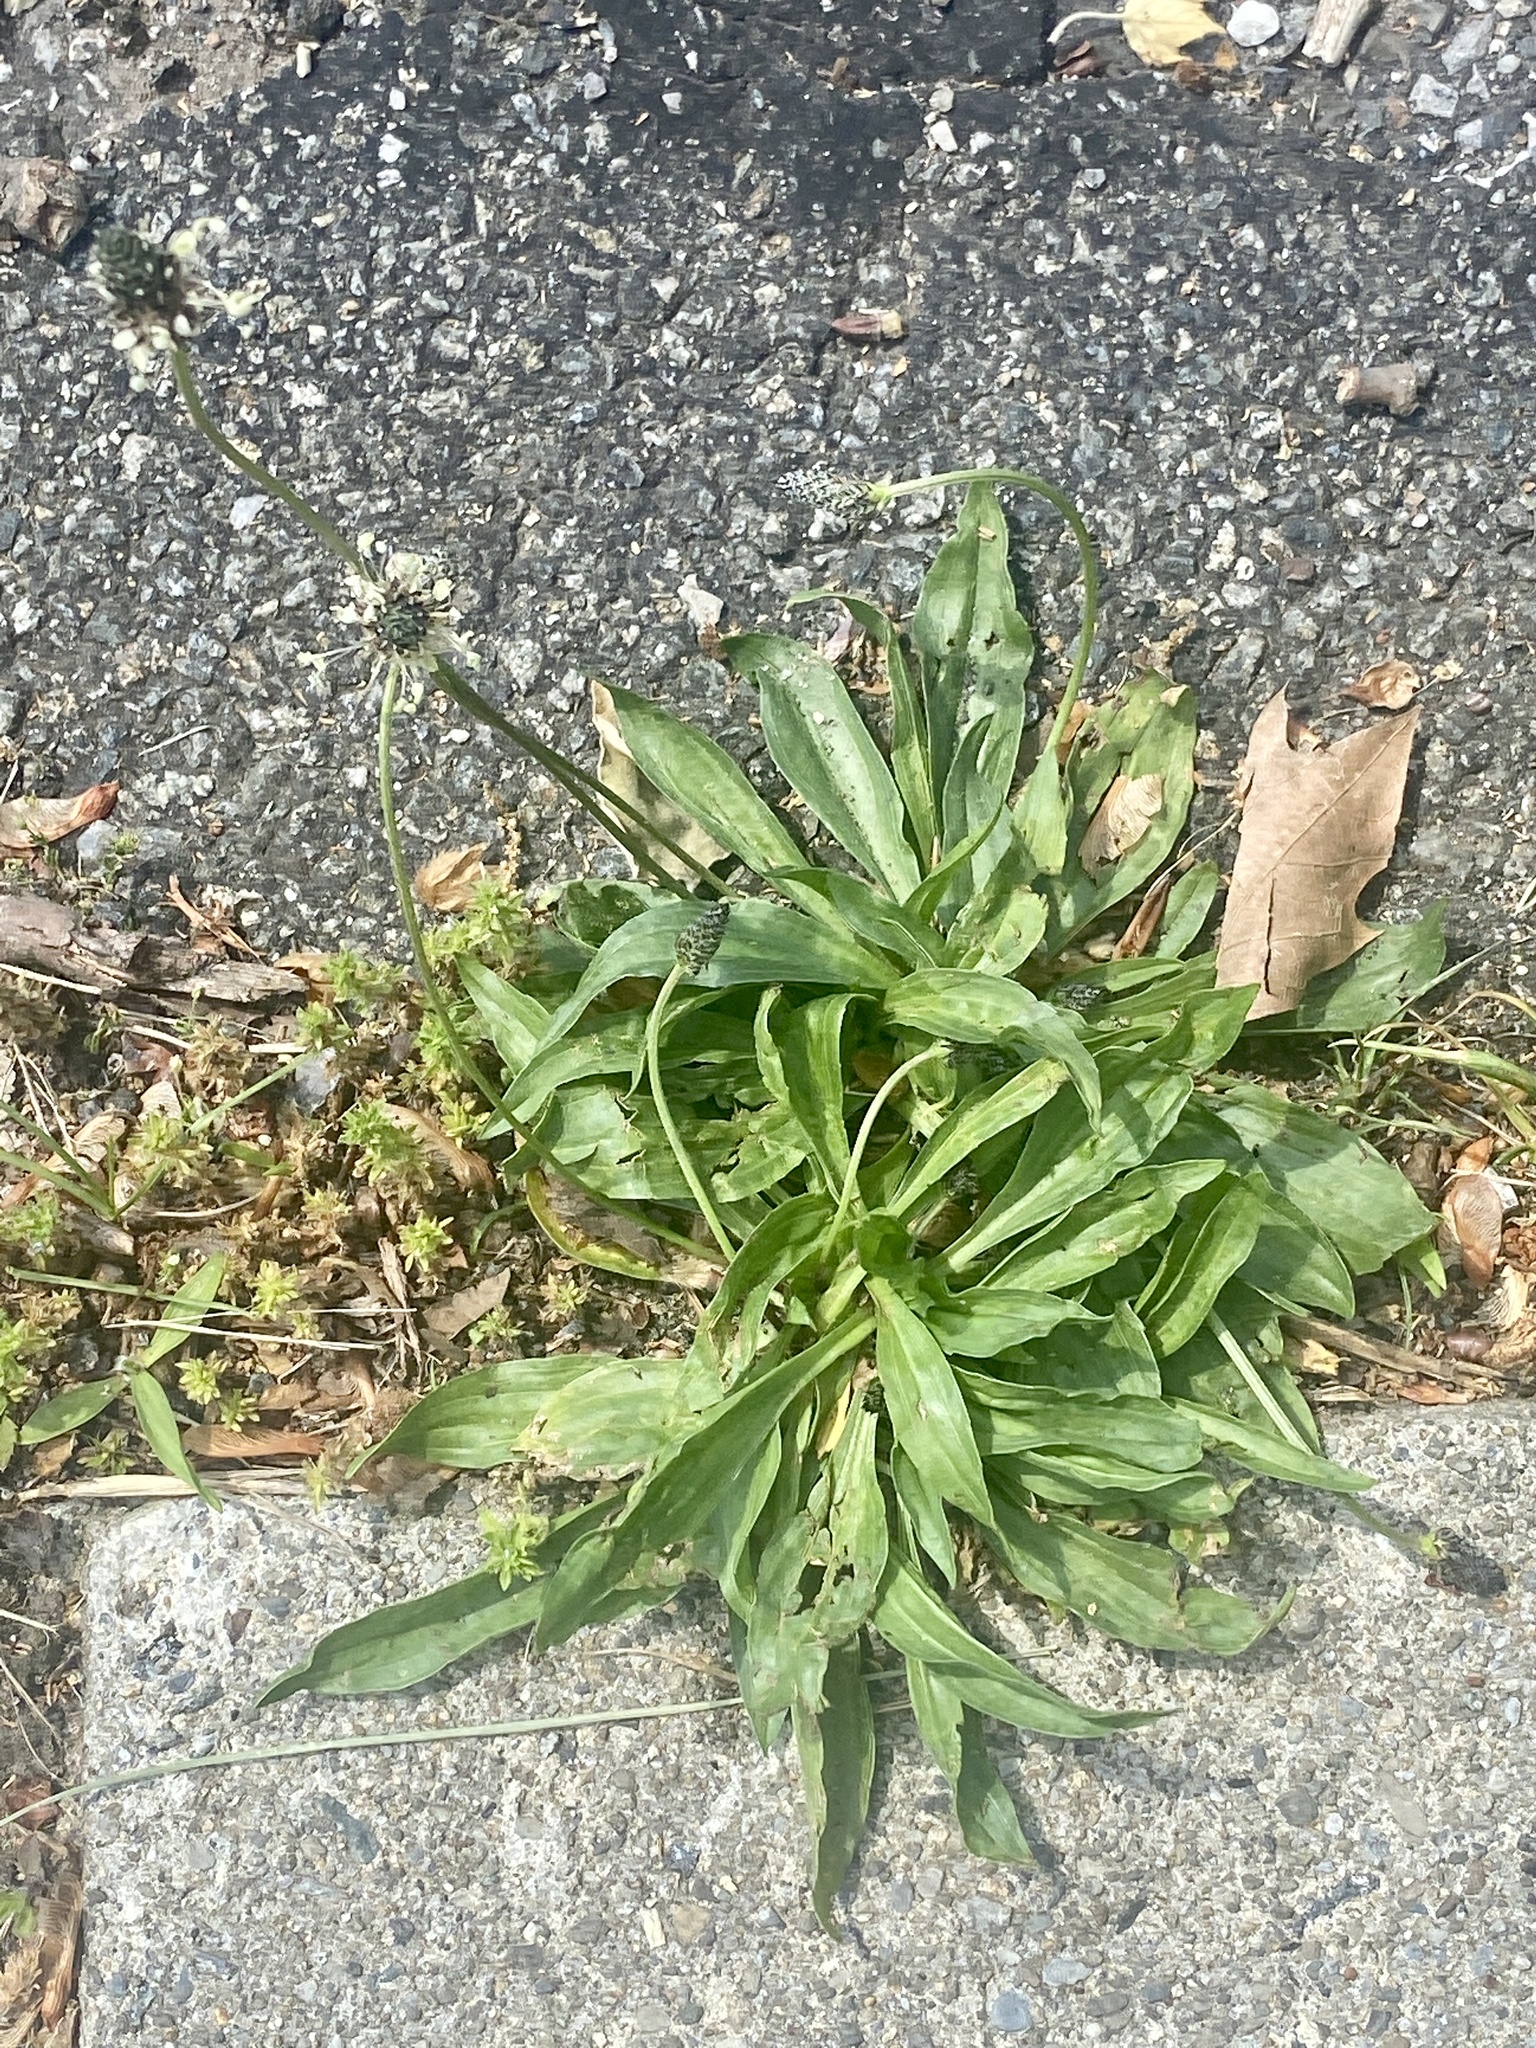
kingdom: Plantae
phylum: Tracheophyta
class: Magnoliopsida
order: Lamiales
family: Plantaginaceae
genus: Plantago
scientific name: Plantago lanceolata
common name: Ribwort plantain
